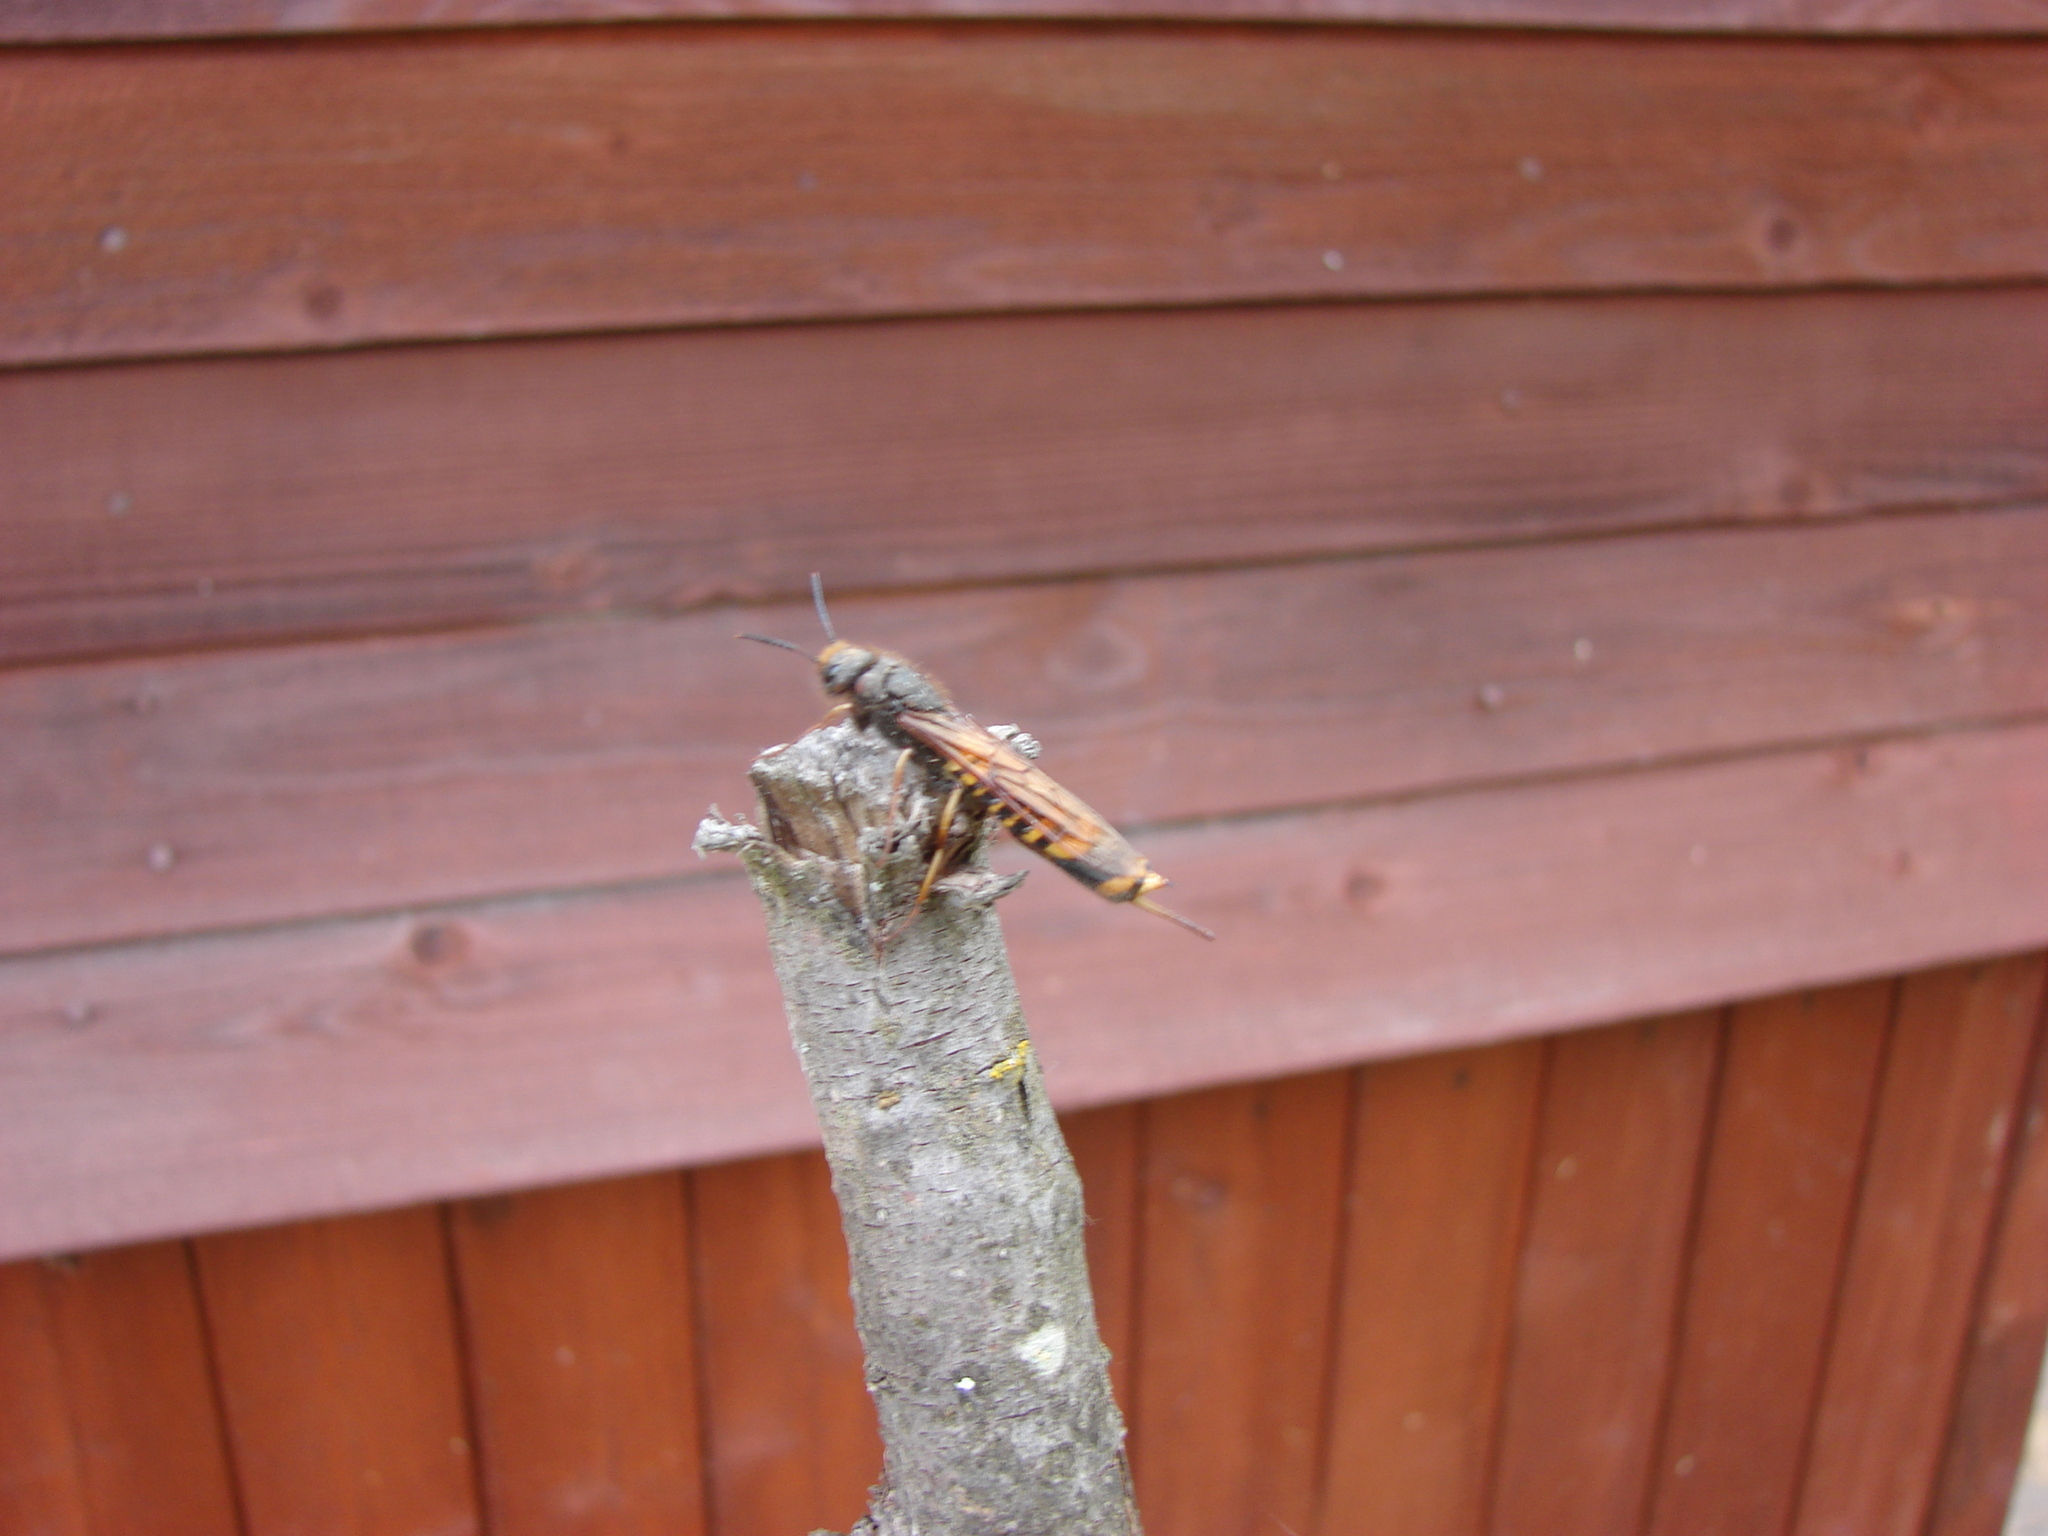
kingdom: Animalia
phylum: Arthropoda
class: Insecta
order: Hymenoptera
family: Siricidae
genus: Tremex
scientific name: Tremex fuscicornis
